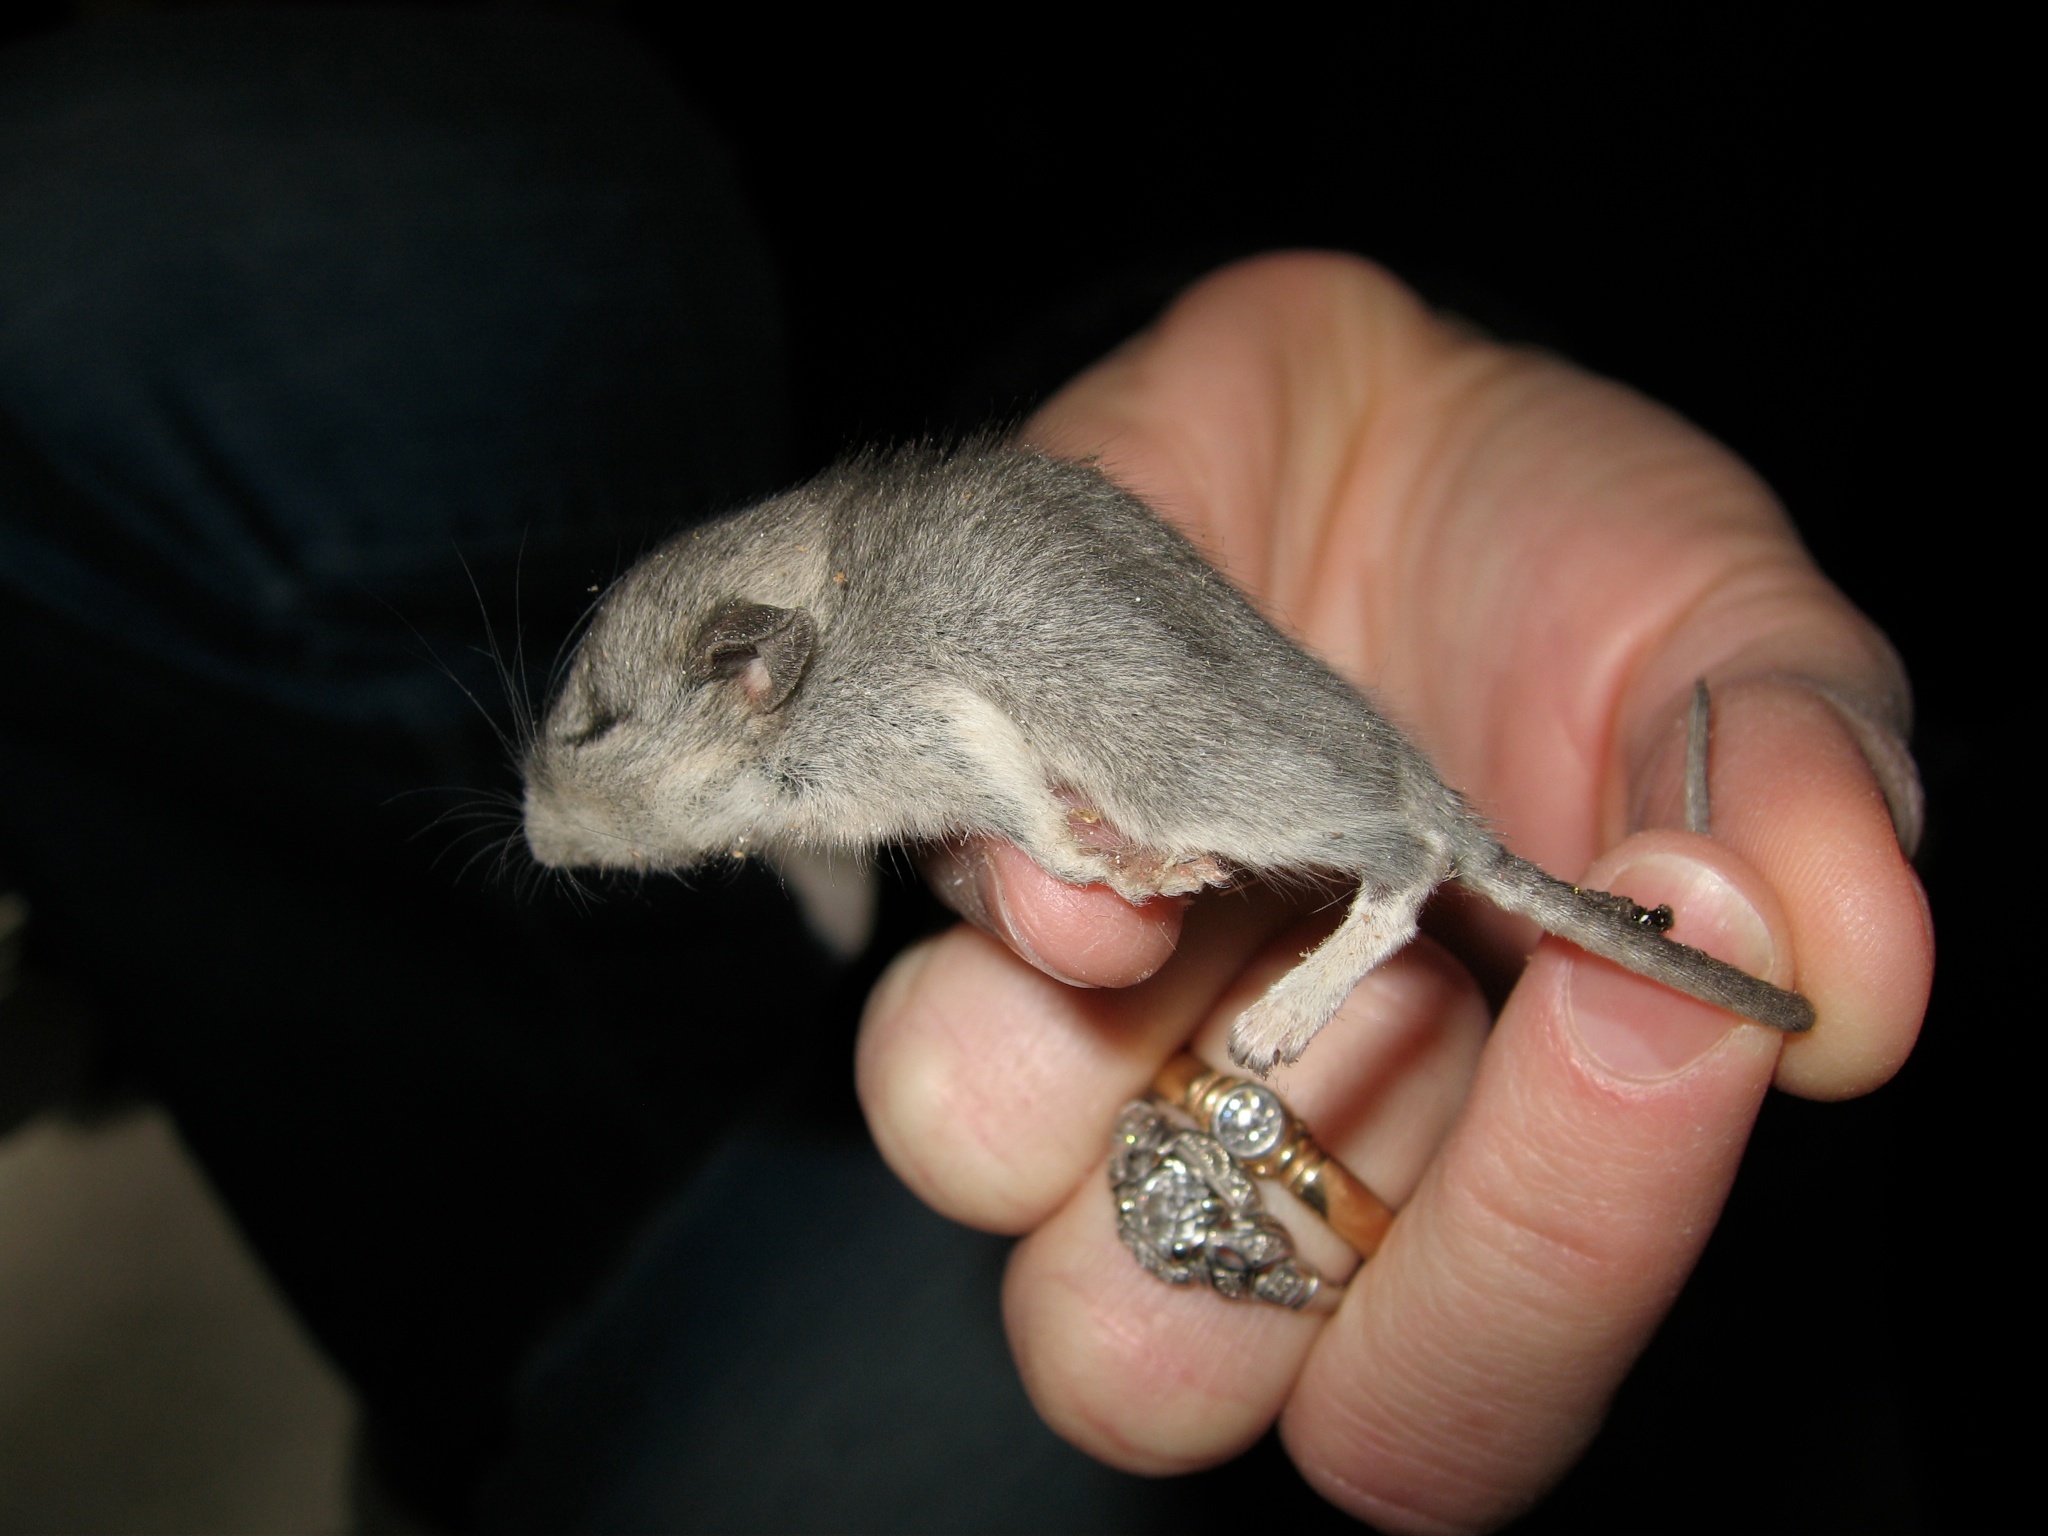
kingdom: Animalia
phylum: Chordata
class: Mammalia
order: Rodentia
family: Cricetidae
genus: Peromyscus
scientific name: Peromyscus maniculatus
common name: Deer mouse
